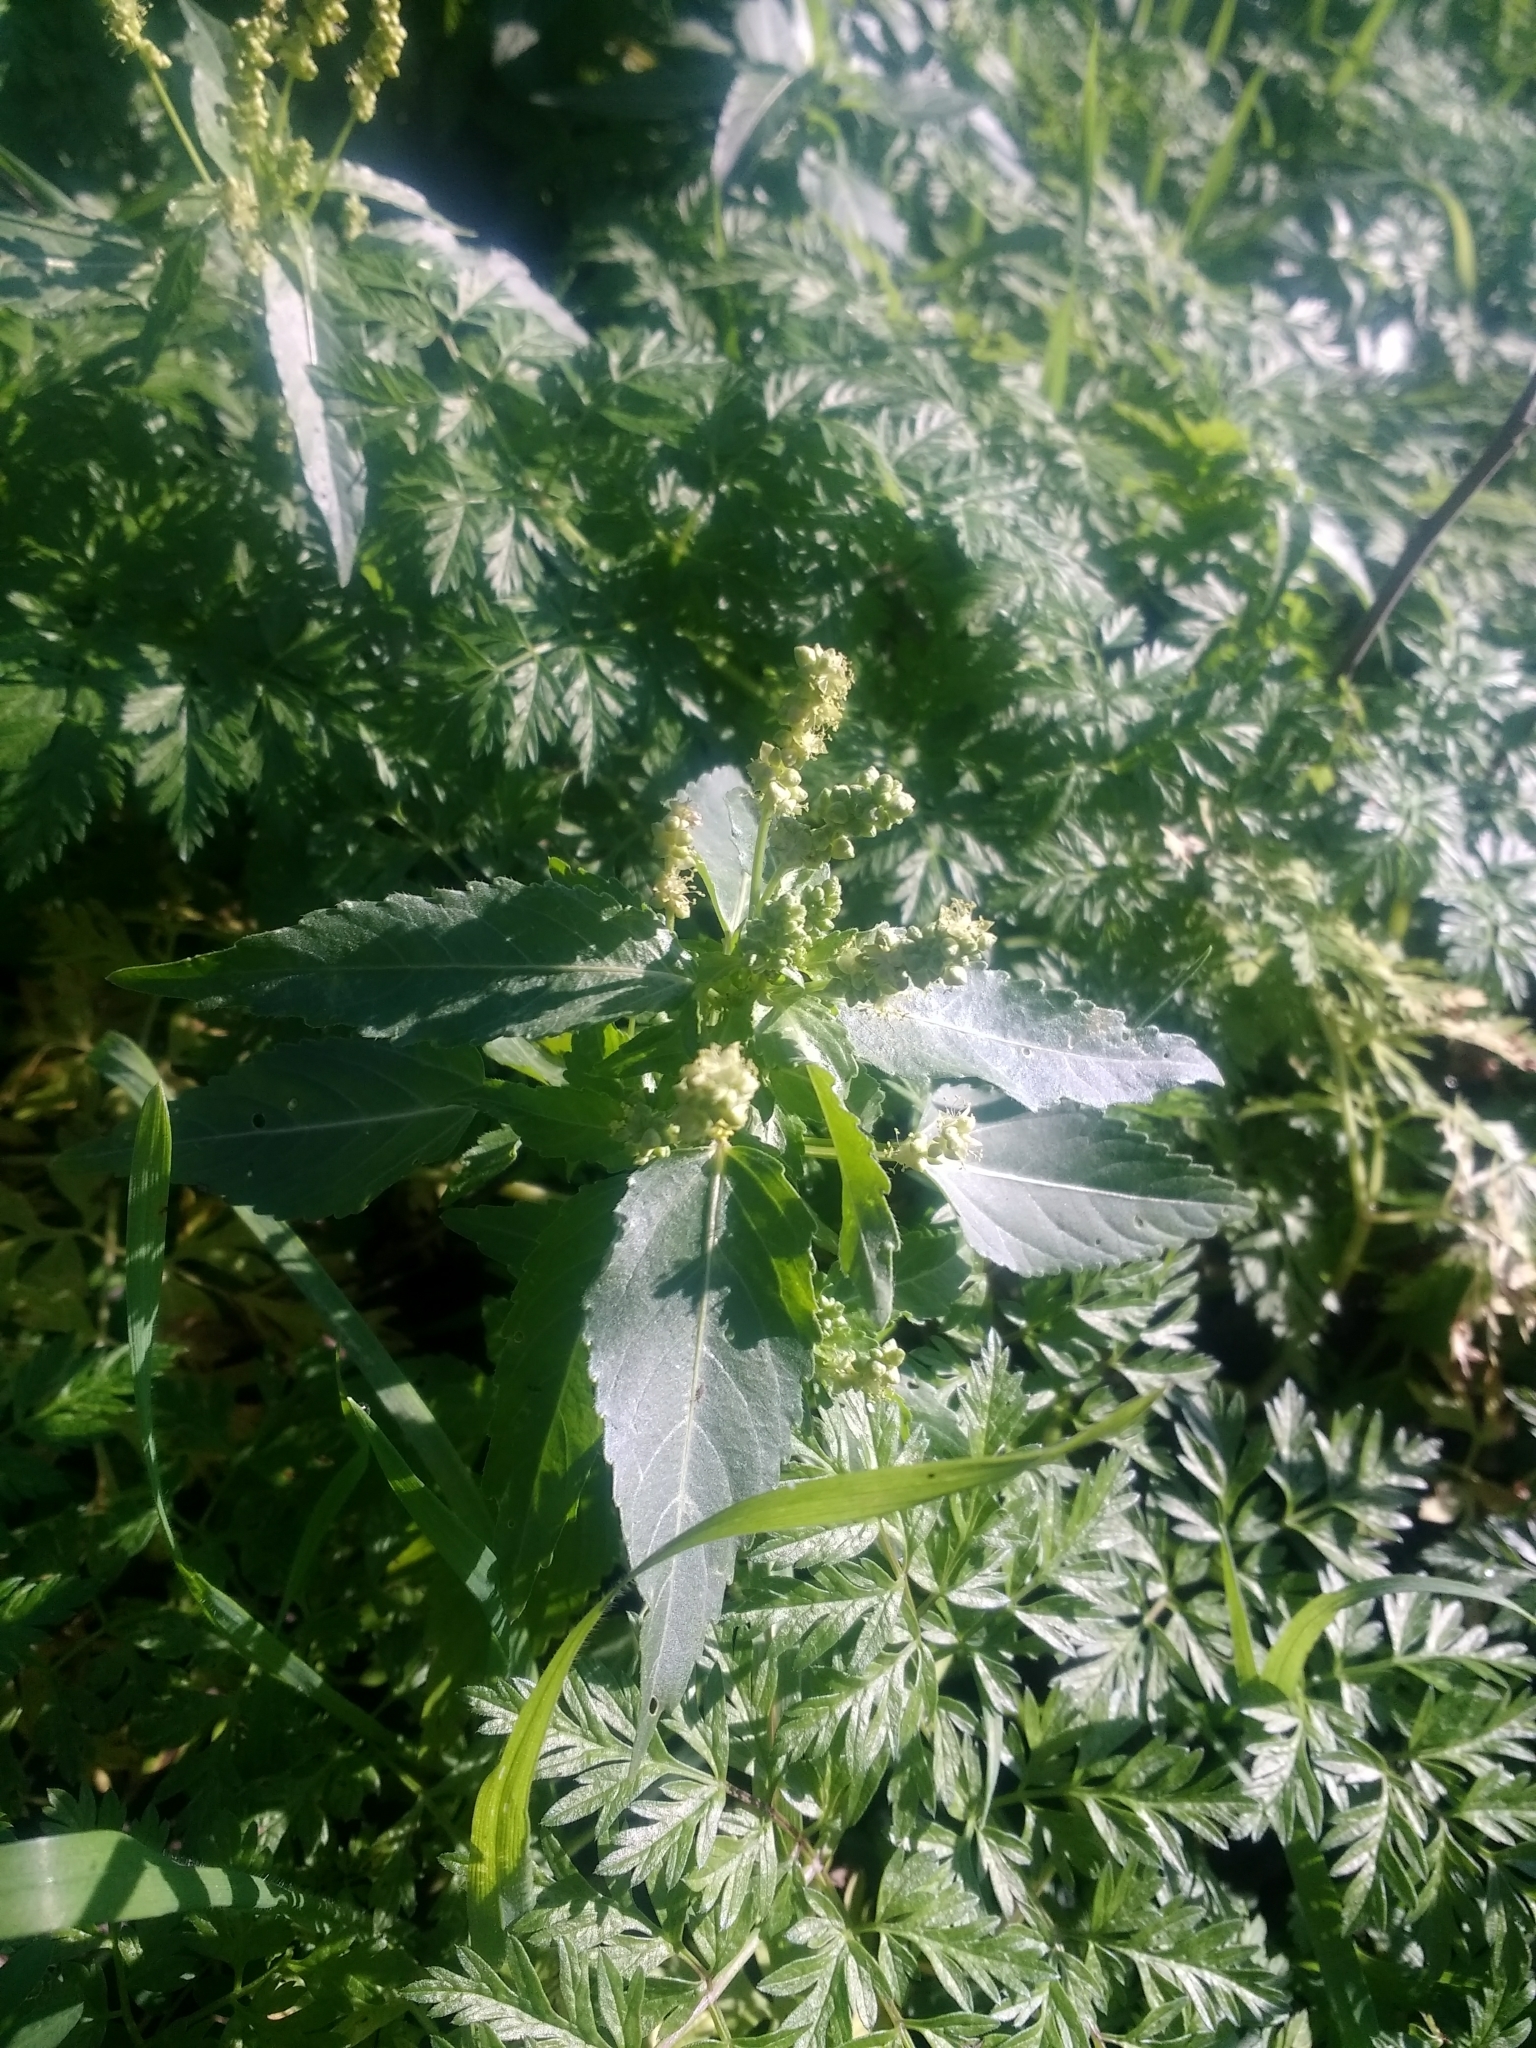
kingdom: Plantae
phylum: Tracheophyta
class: Magnoliopsida
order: Malpighiales
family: Euphorbiaceae
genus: Mercurialis
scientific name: Mercurialis annua
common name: Annual mercury
